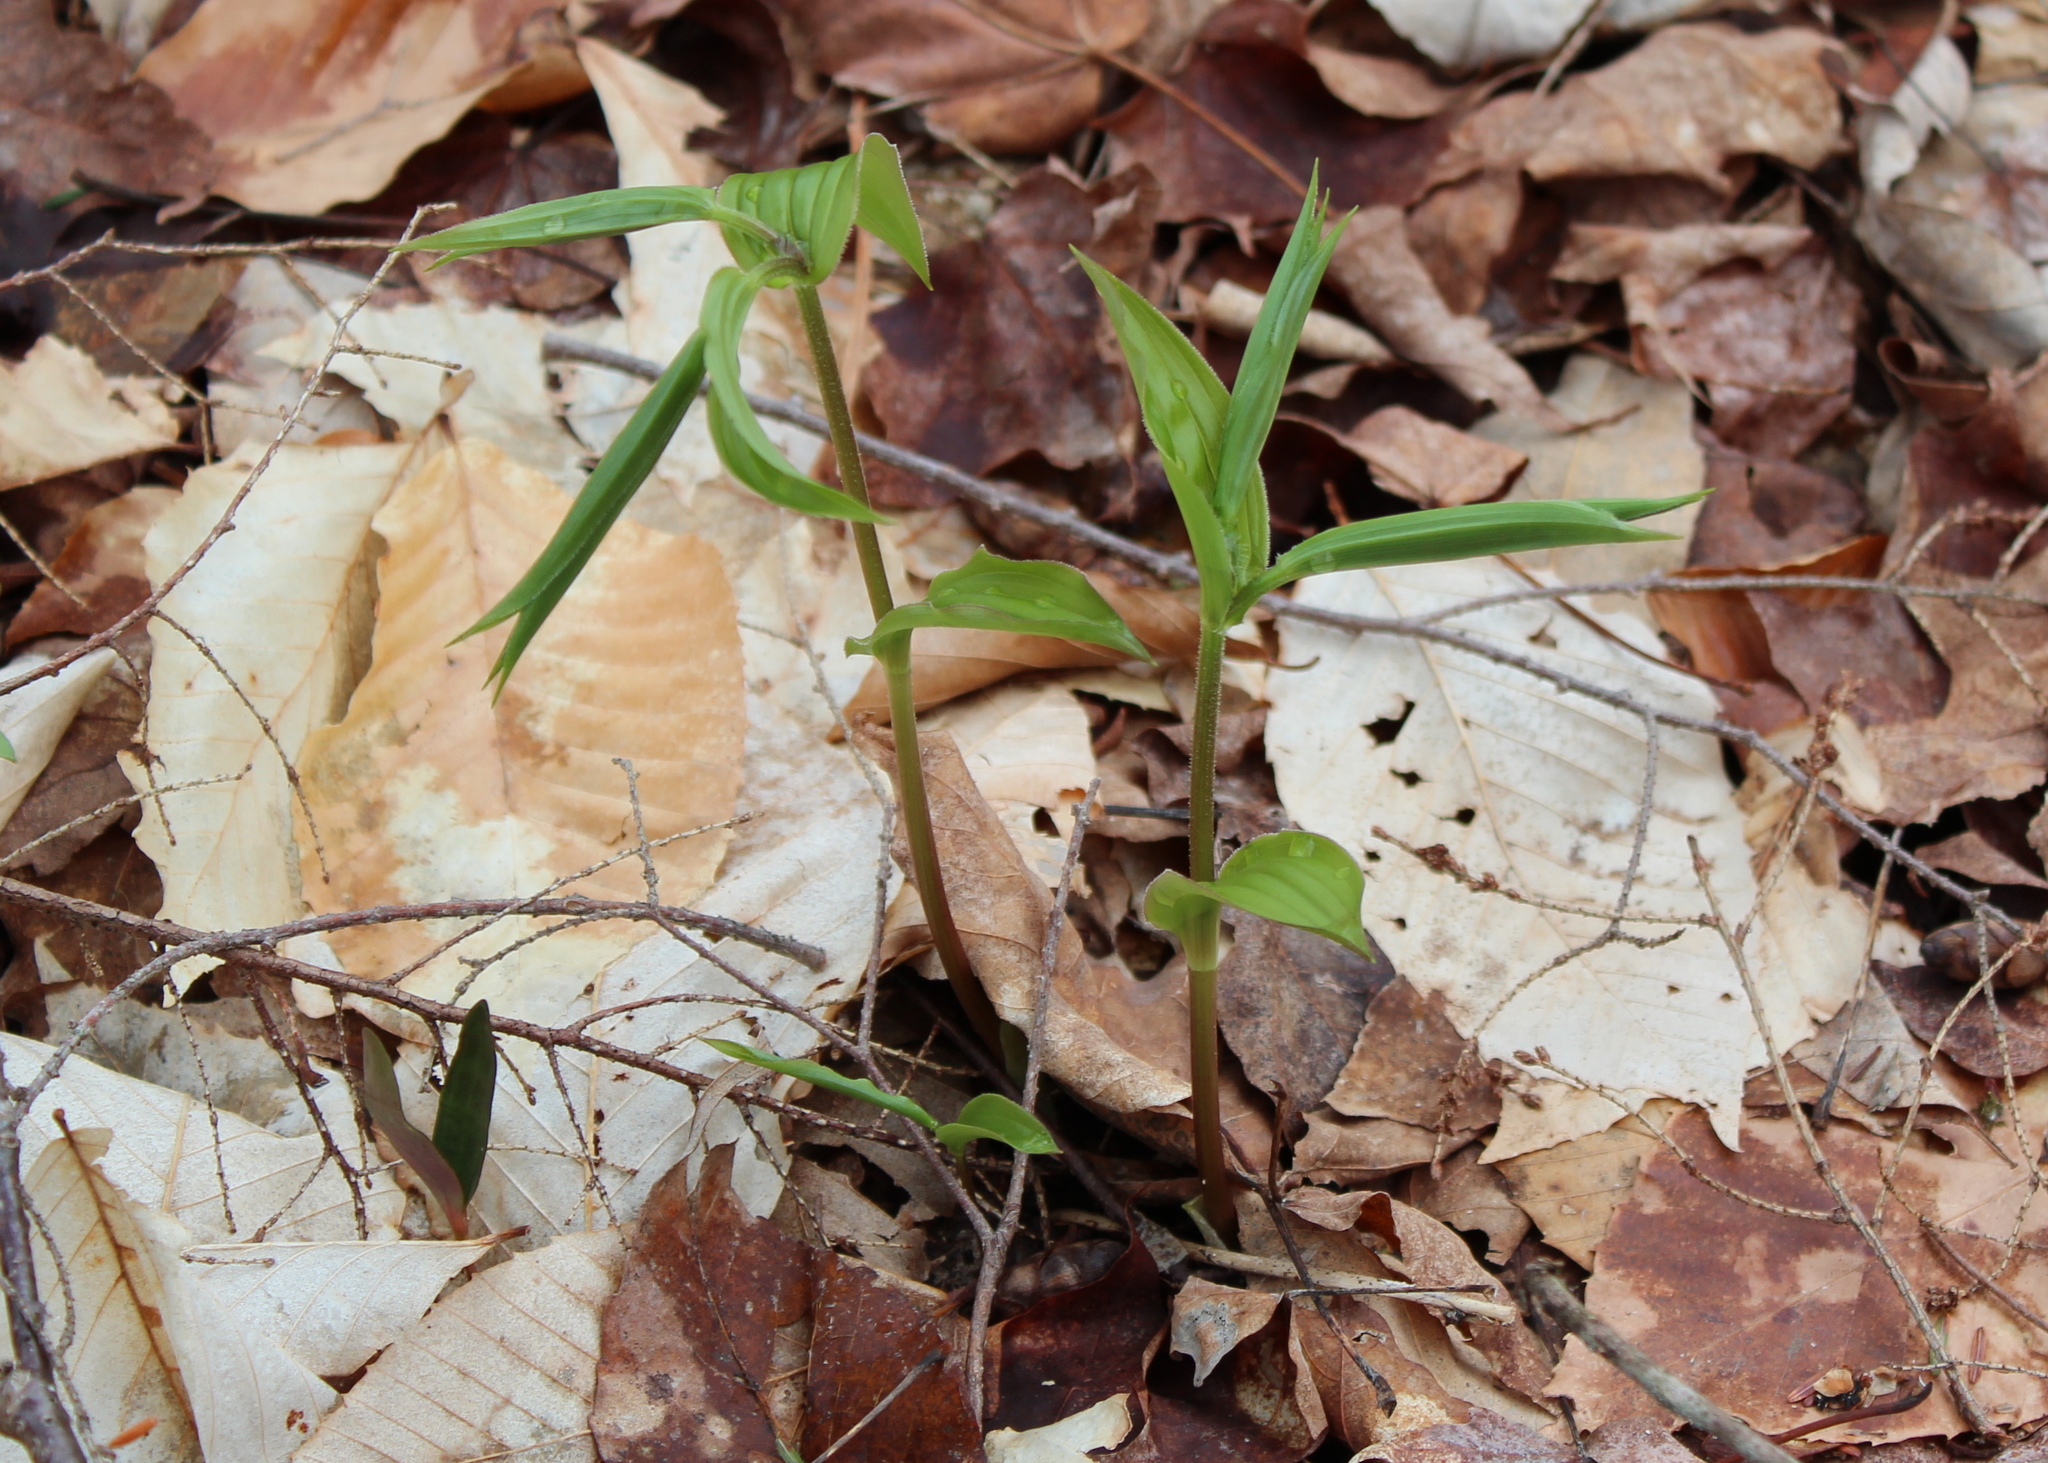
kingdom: Plantae
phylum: Tracheophyta
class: Liliopsida
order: Liliales
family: Liliaceae
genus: Streptopus
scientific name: Streptopus lanceolatus
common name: Rose mandarin
